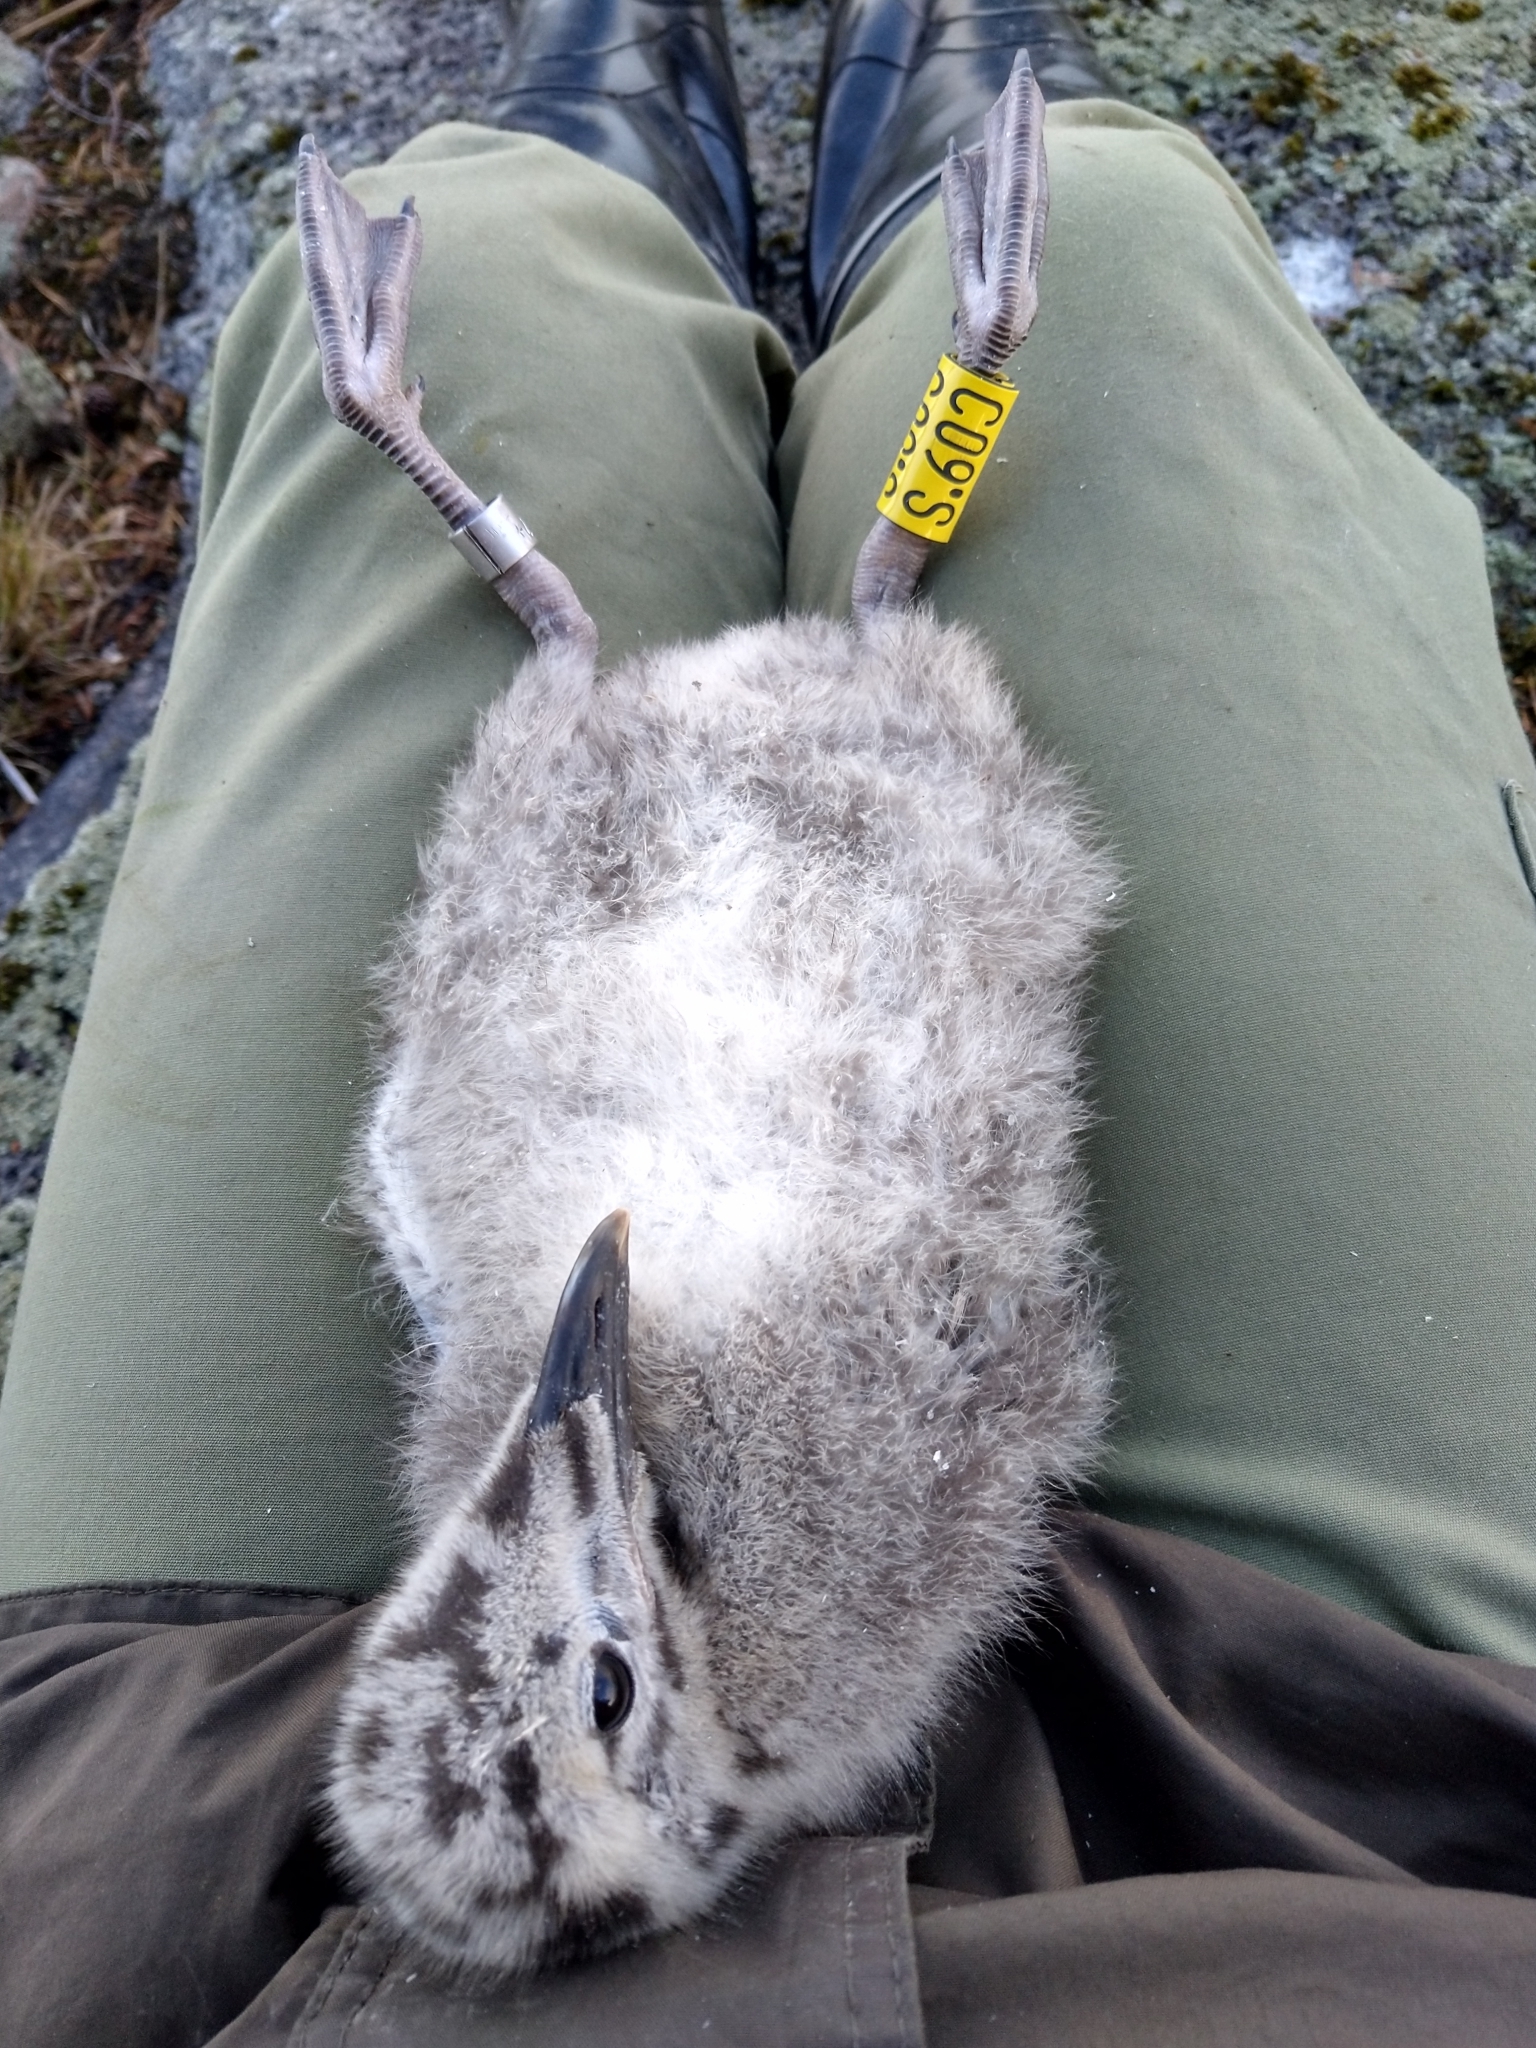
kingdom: Animalia
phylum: Chordata
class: Aves
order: Charadriiformes
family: Laridae
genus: Larus
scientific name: Larus fuscus
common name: Lesser black-backed gull
